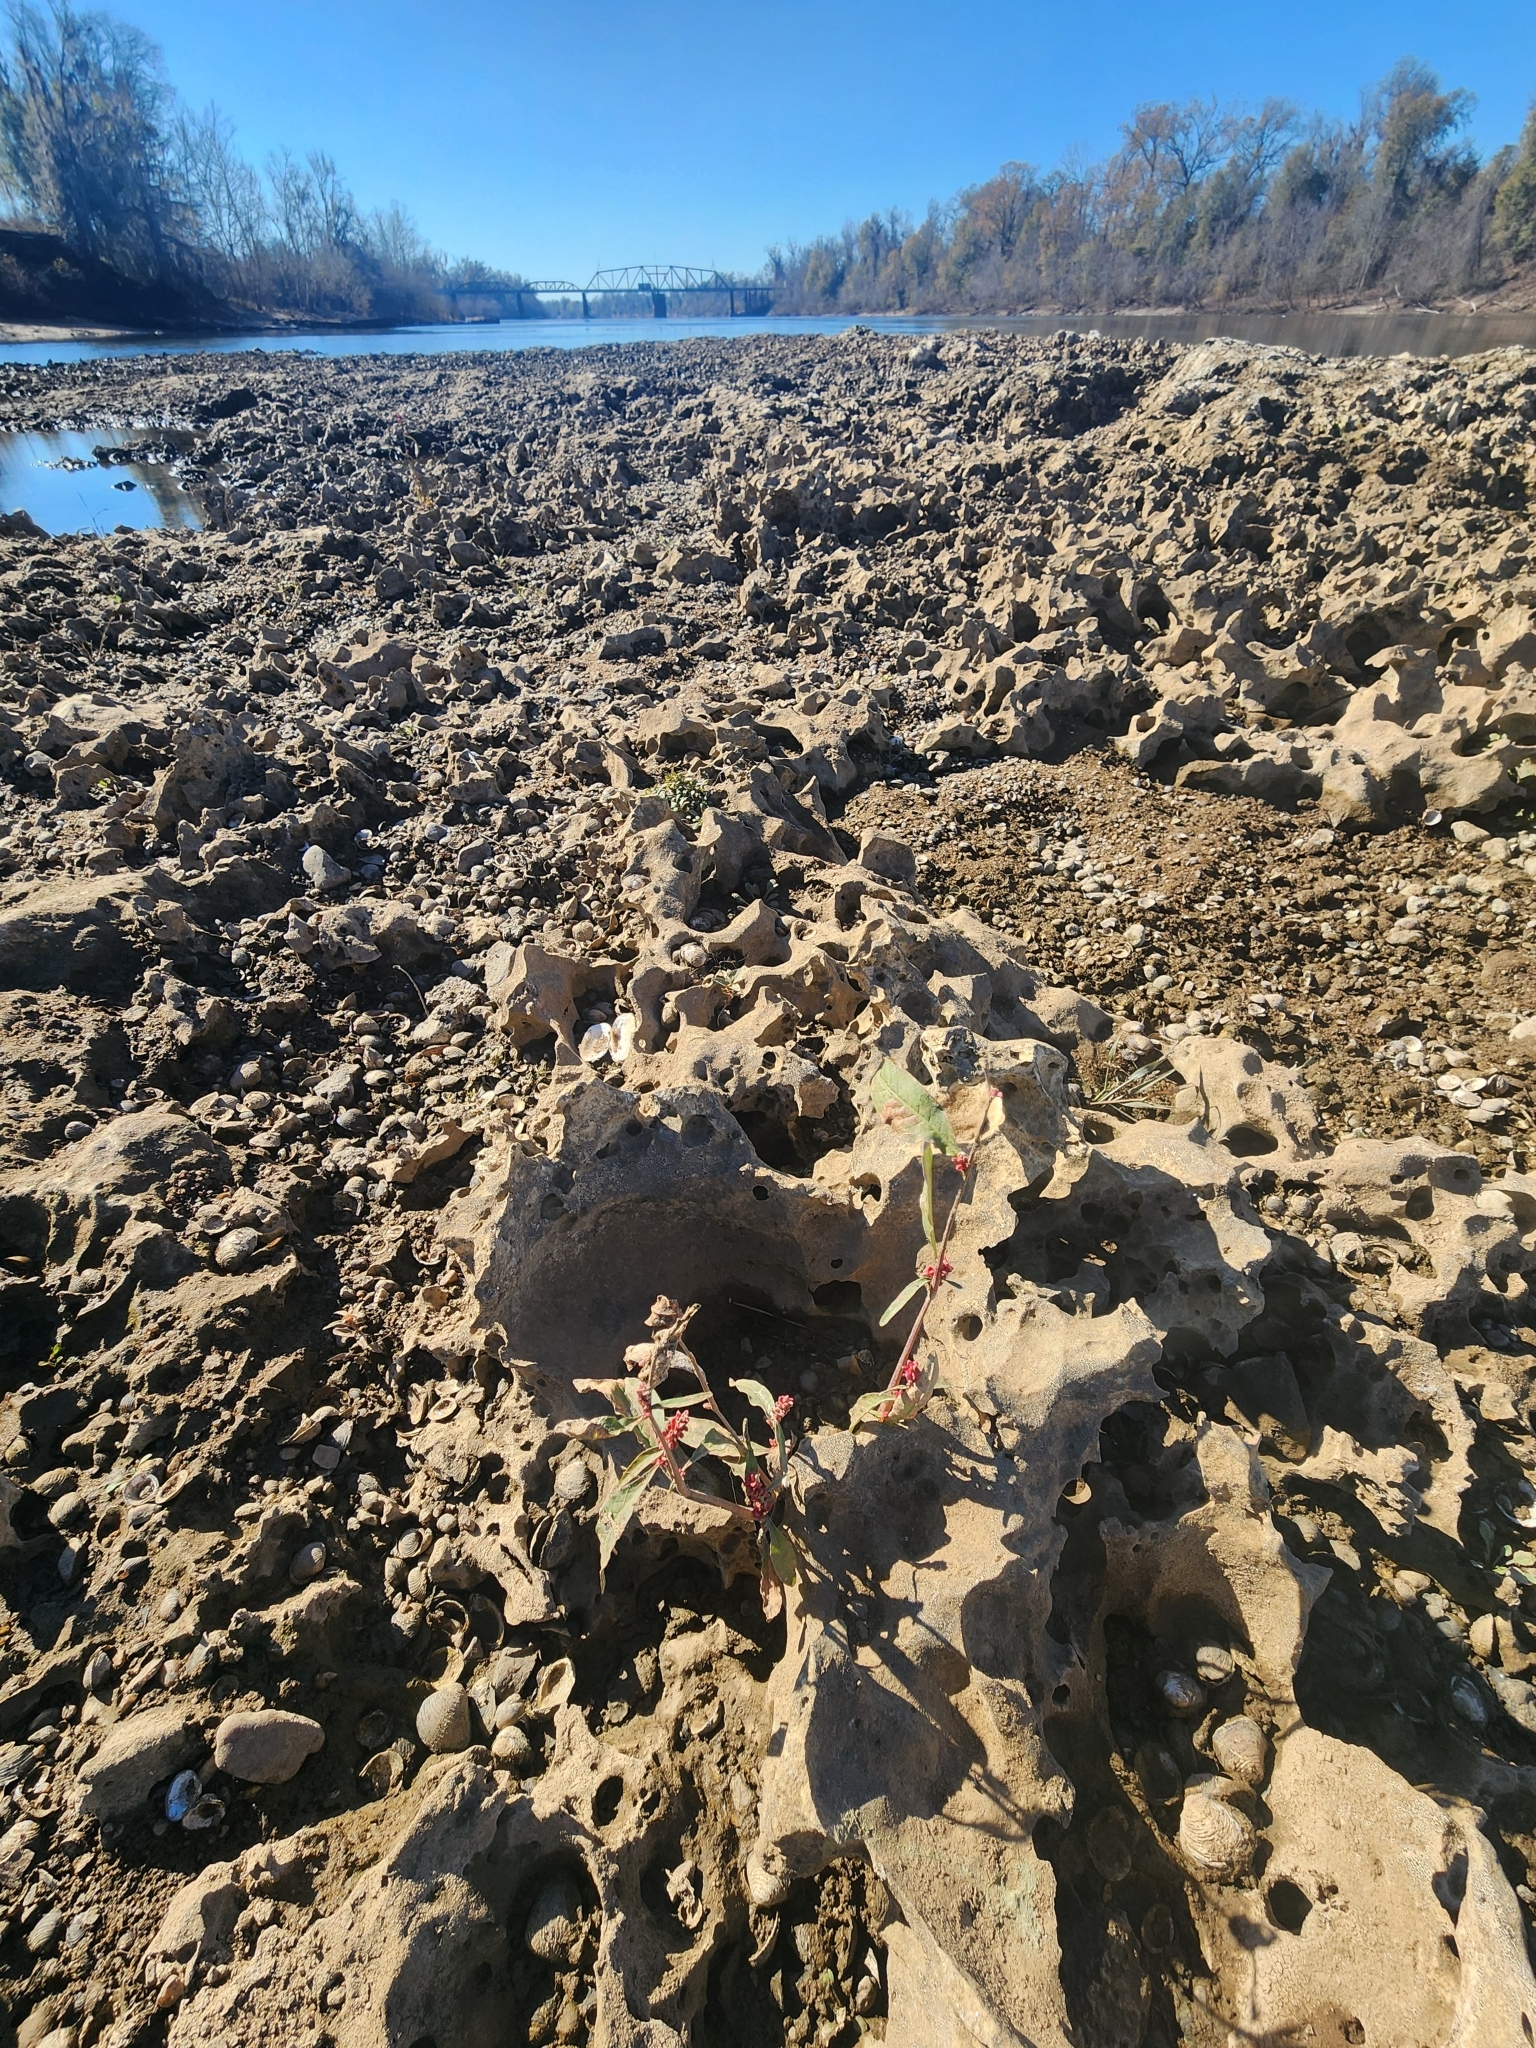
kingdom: Plantae
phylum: Tracheophyta
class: Magnoliopsida
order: Caryophyllales
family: Polygonaceae
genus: Persicaria
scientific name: Persicaria maculosa
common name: Redshank
